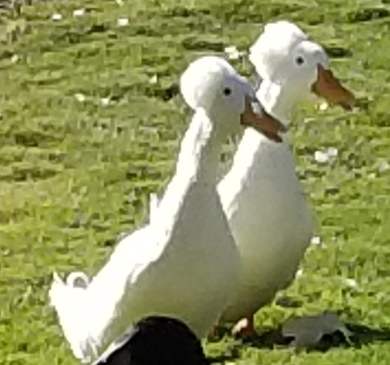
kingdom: Animalia
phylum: Chordata
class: Aves
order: Anseriformes
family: Anatidae
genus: Anas
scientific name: Anas platyrhynchos
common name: Mallard
